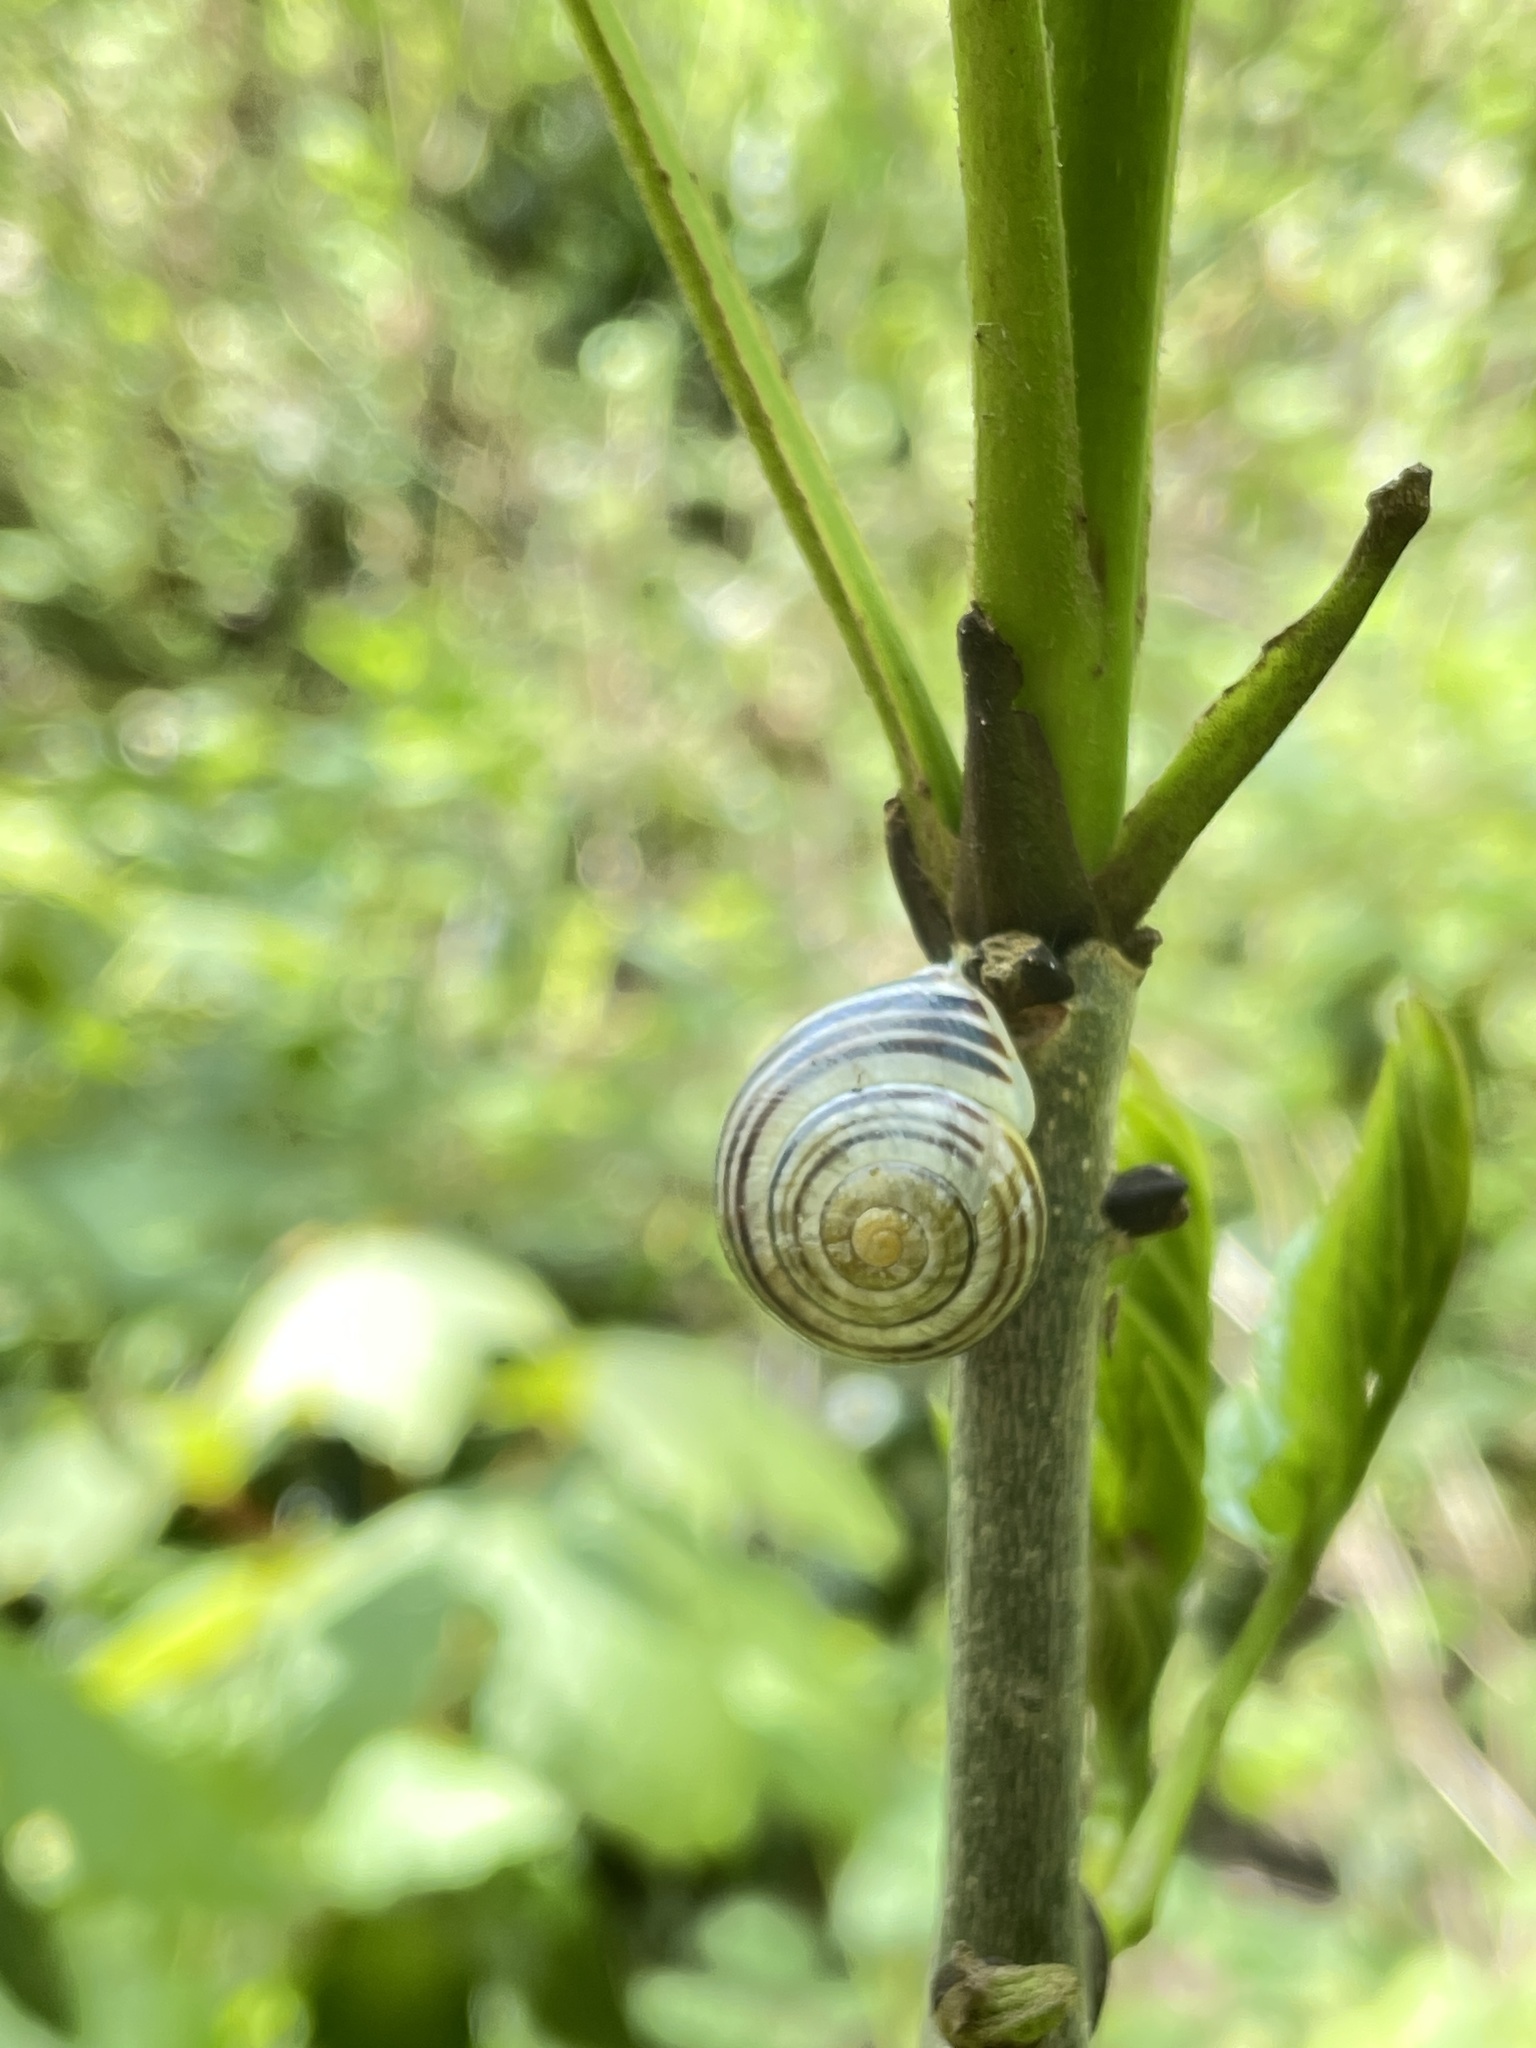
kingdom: Animalia
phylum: Mollusca
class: Gastropoda
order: Stylommatophora
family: Helicidae
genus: Cepaea
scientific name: Cepaea hortensis
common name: White-lip gardensnail
